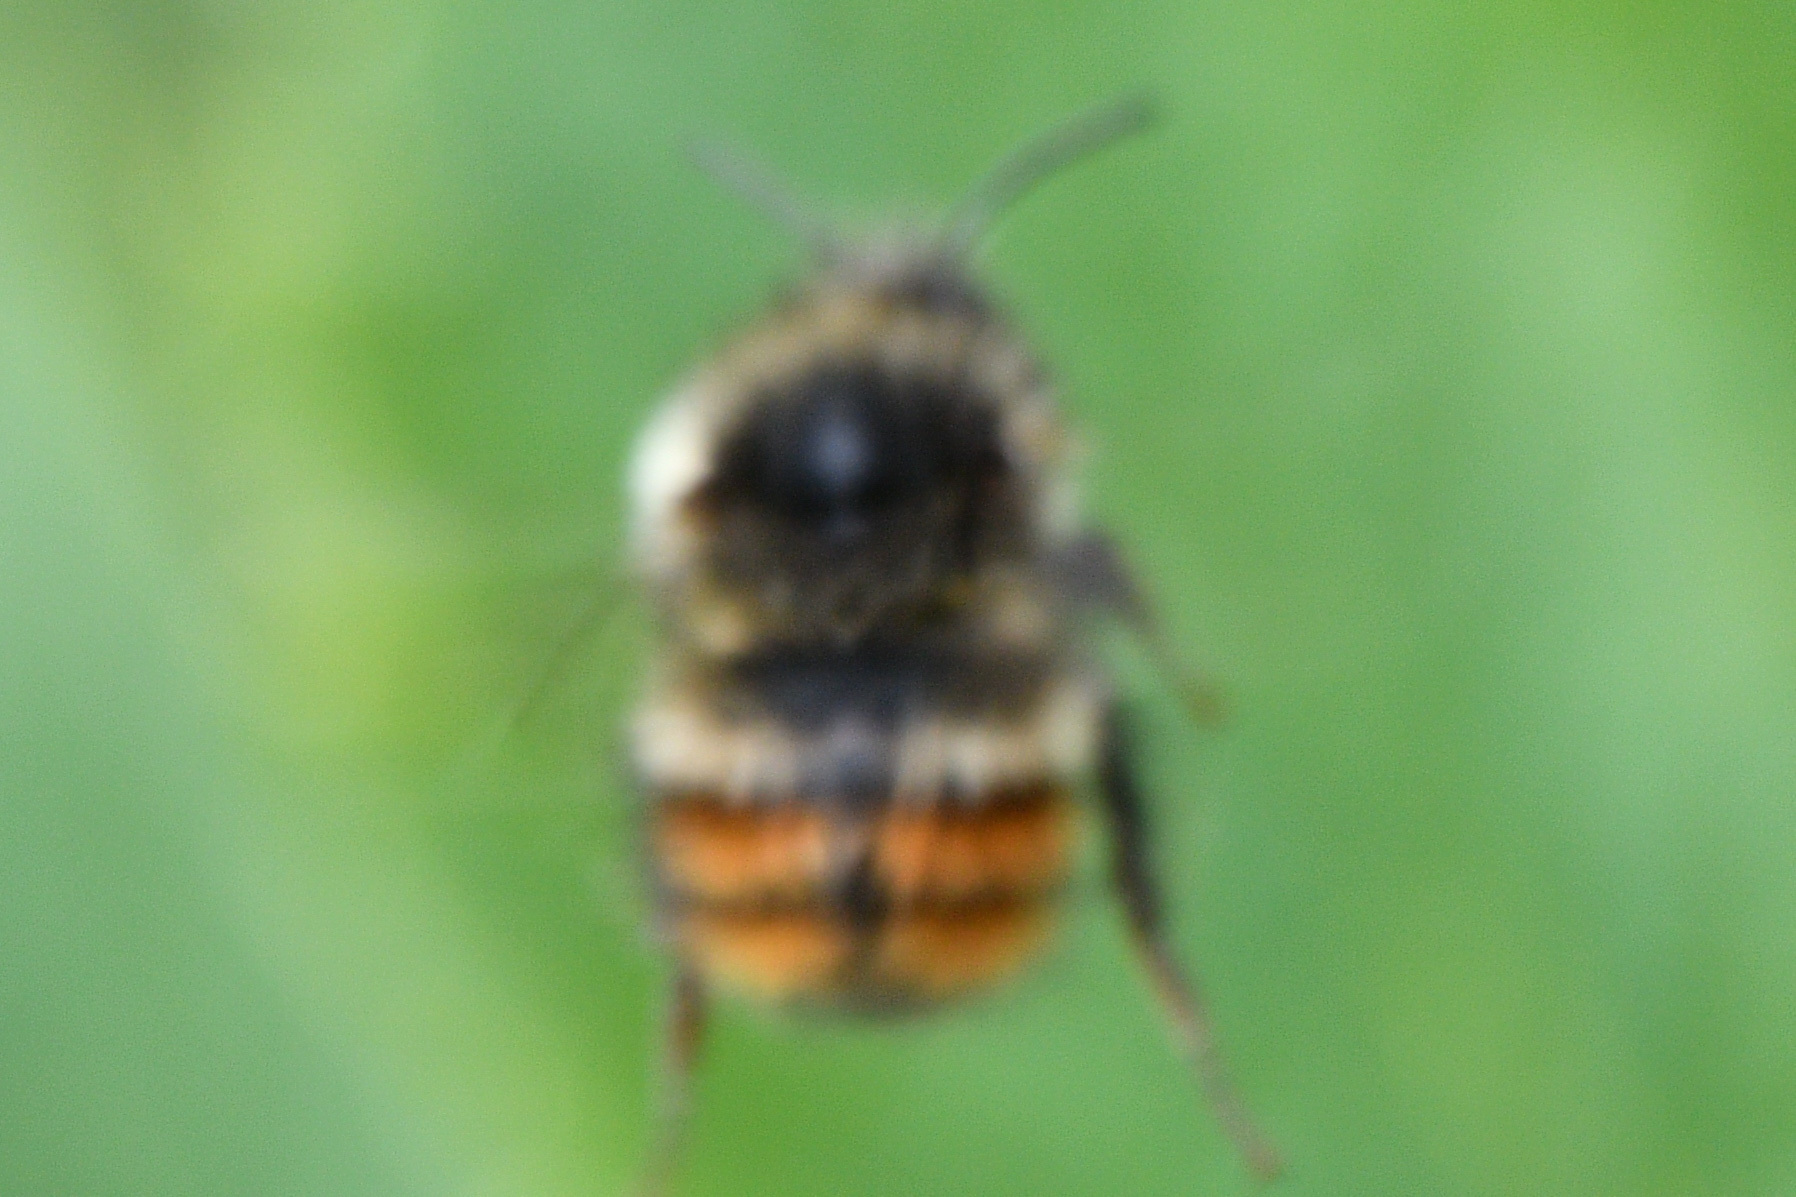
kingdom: Animalia
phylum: Arthropoda
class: Insecta
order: Hymenoptera
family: Apidae
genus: Bombus
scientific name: Bombus flavifrons
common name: Yellow head bumble bee
